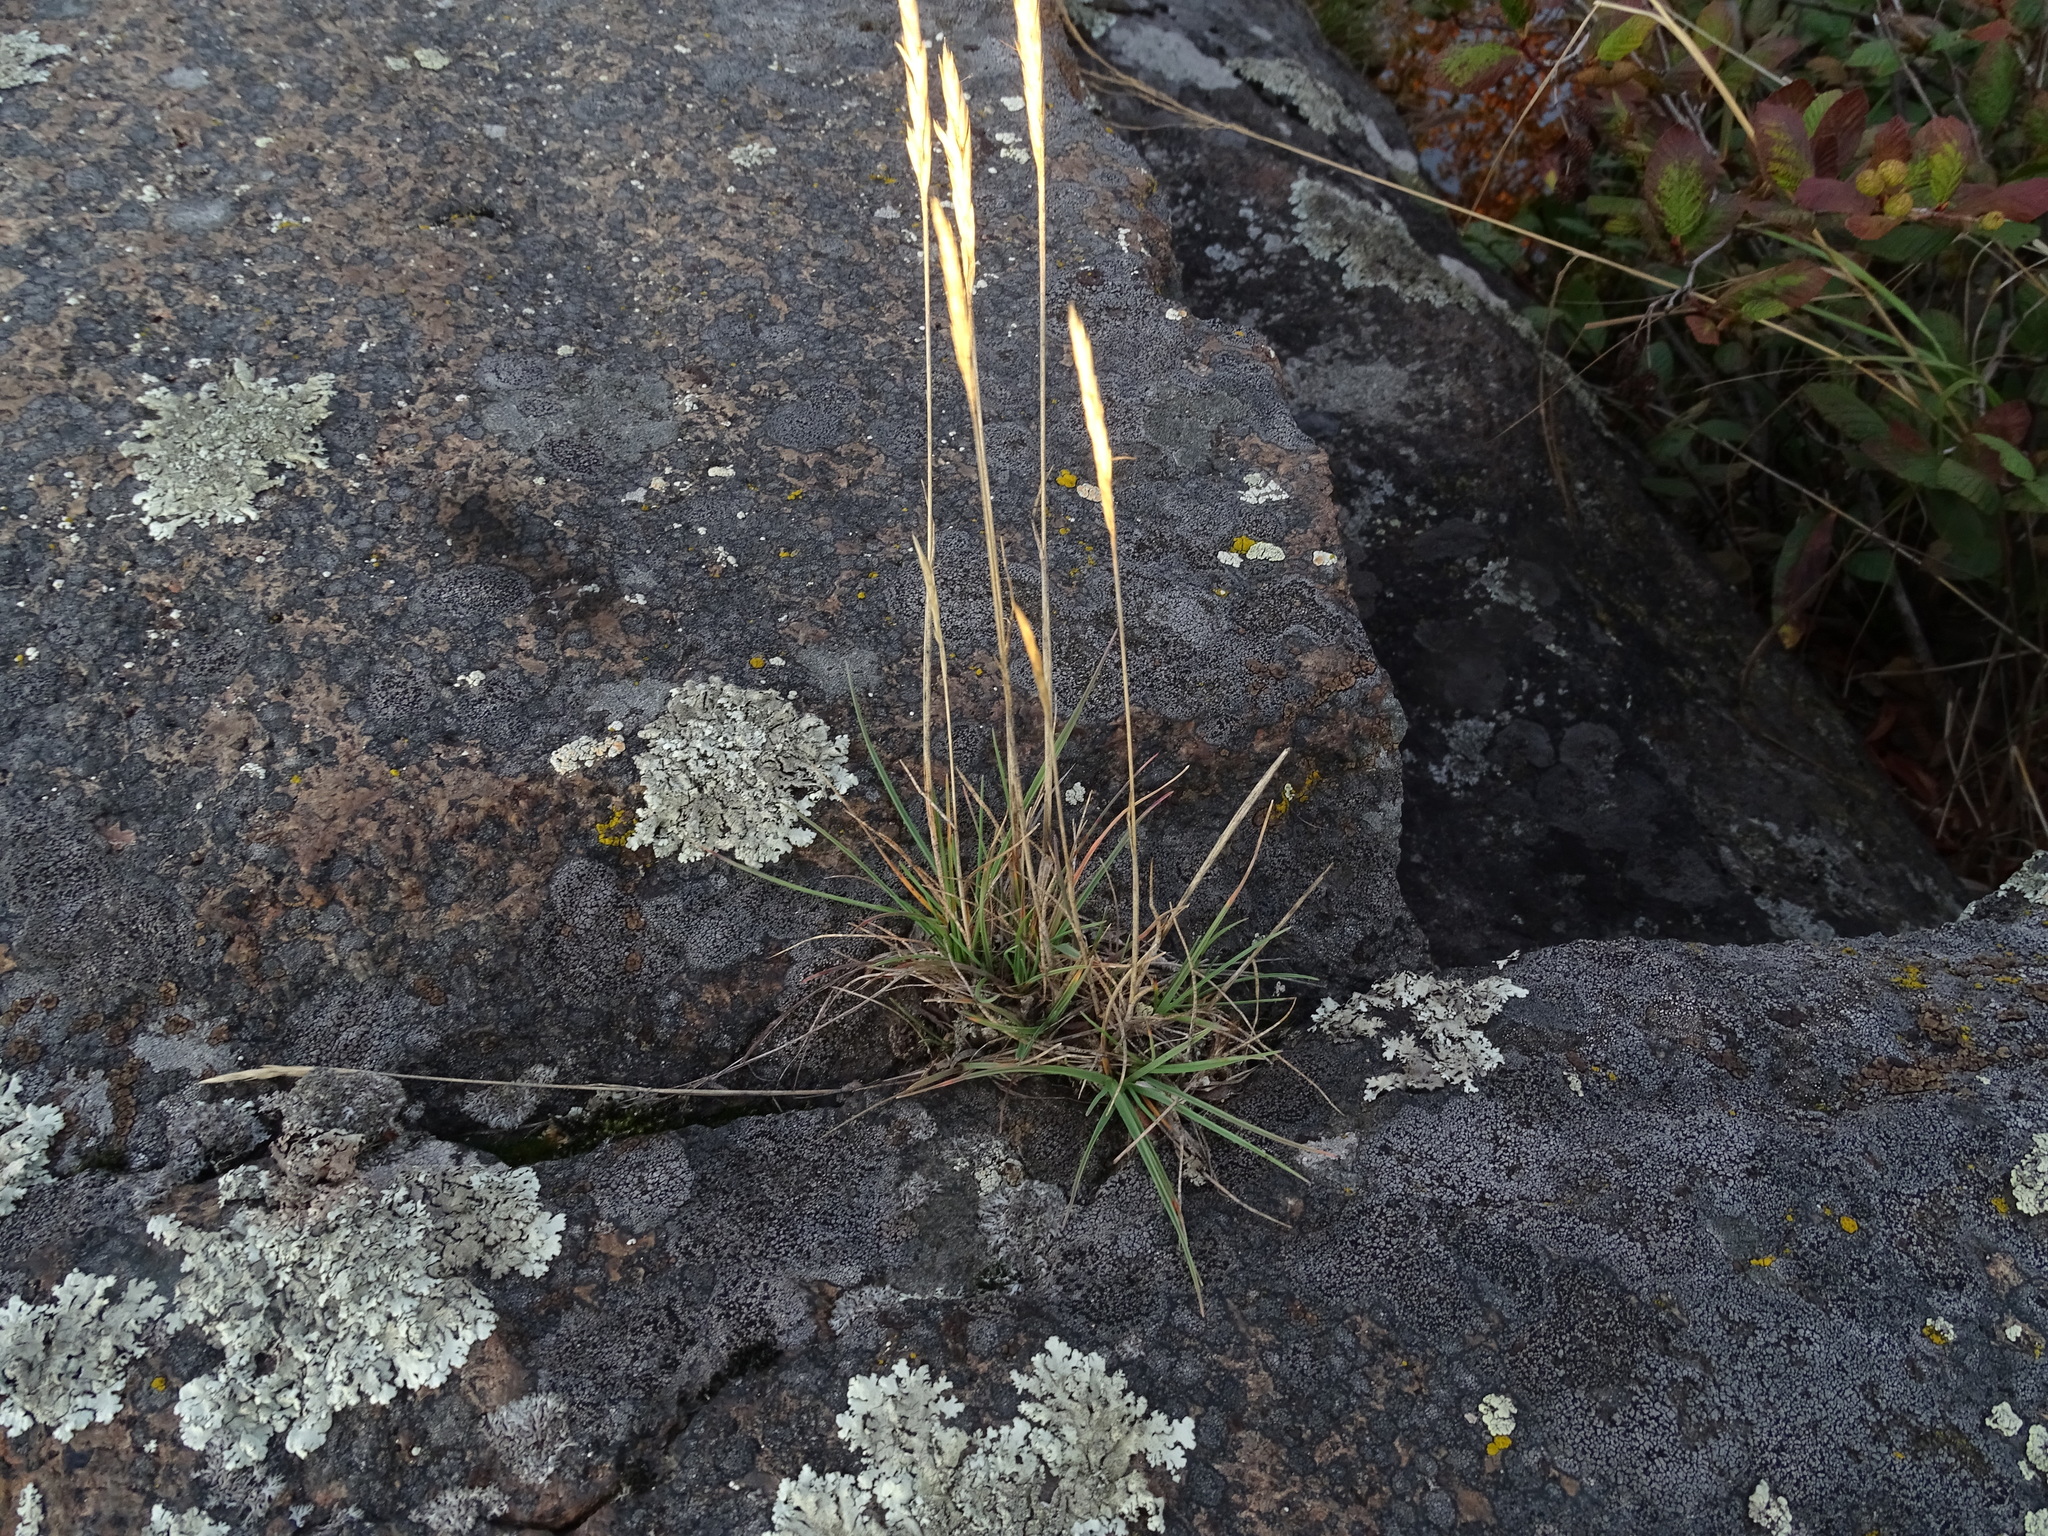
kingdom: Plantae
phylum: Tracheophyta
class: Liliopsida
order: Poales
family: Poaceae
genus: Koeleria
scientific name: Koeleria spicata
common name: Mountain trisetum
